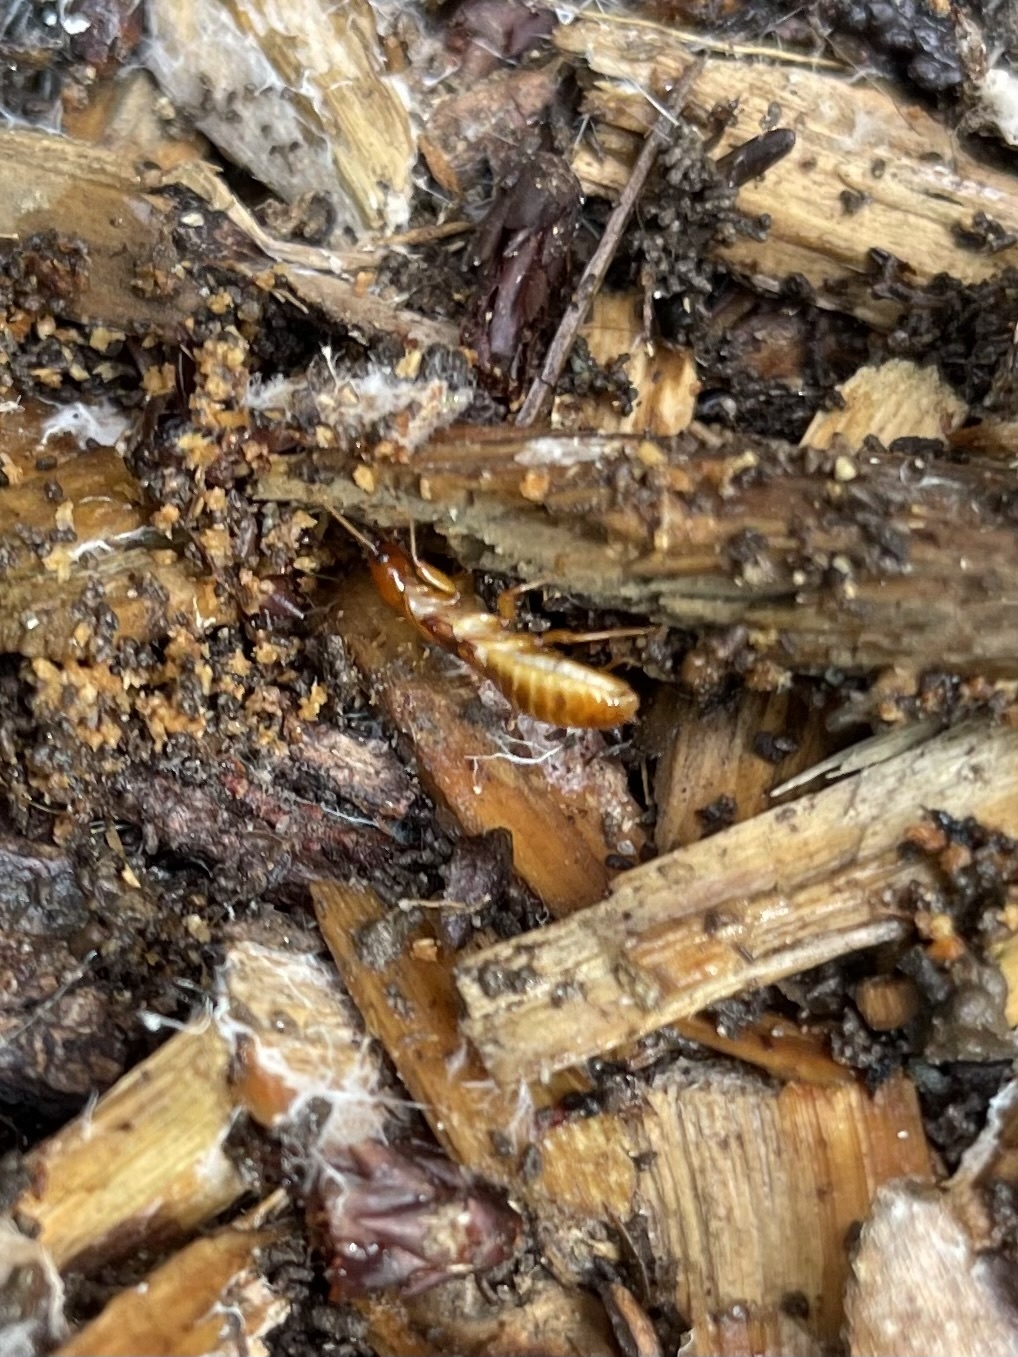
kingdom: Animalia
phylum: Arthropoda
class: Insecta
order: Blattodea
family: Archotermopsidae
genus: Zootermopsis
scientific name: Zootermopsis angusticollis
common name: Rottenwood termite
